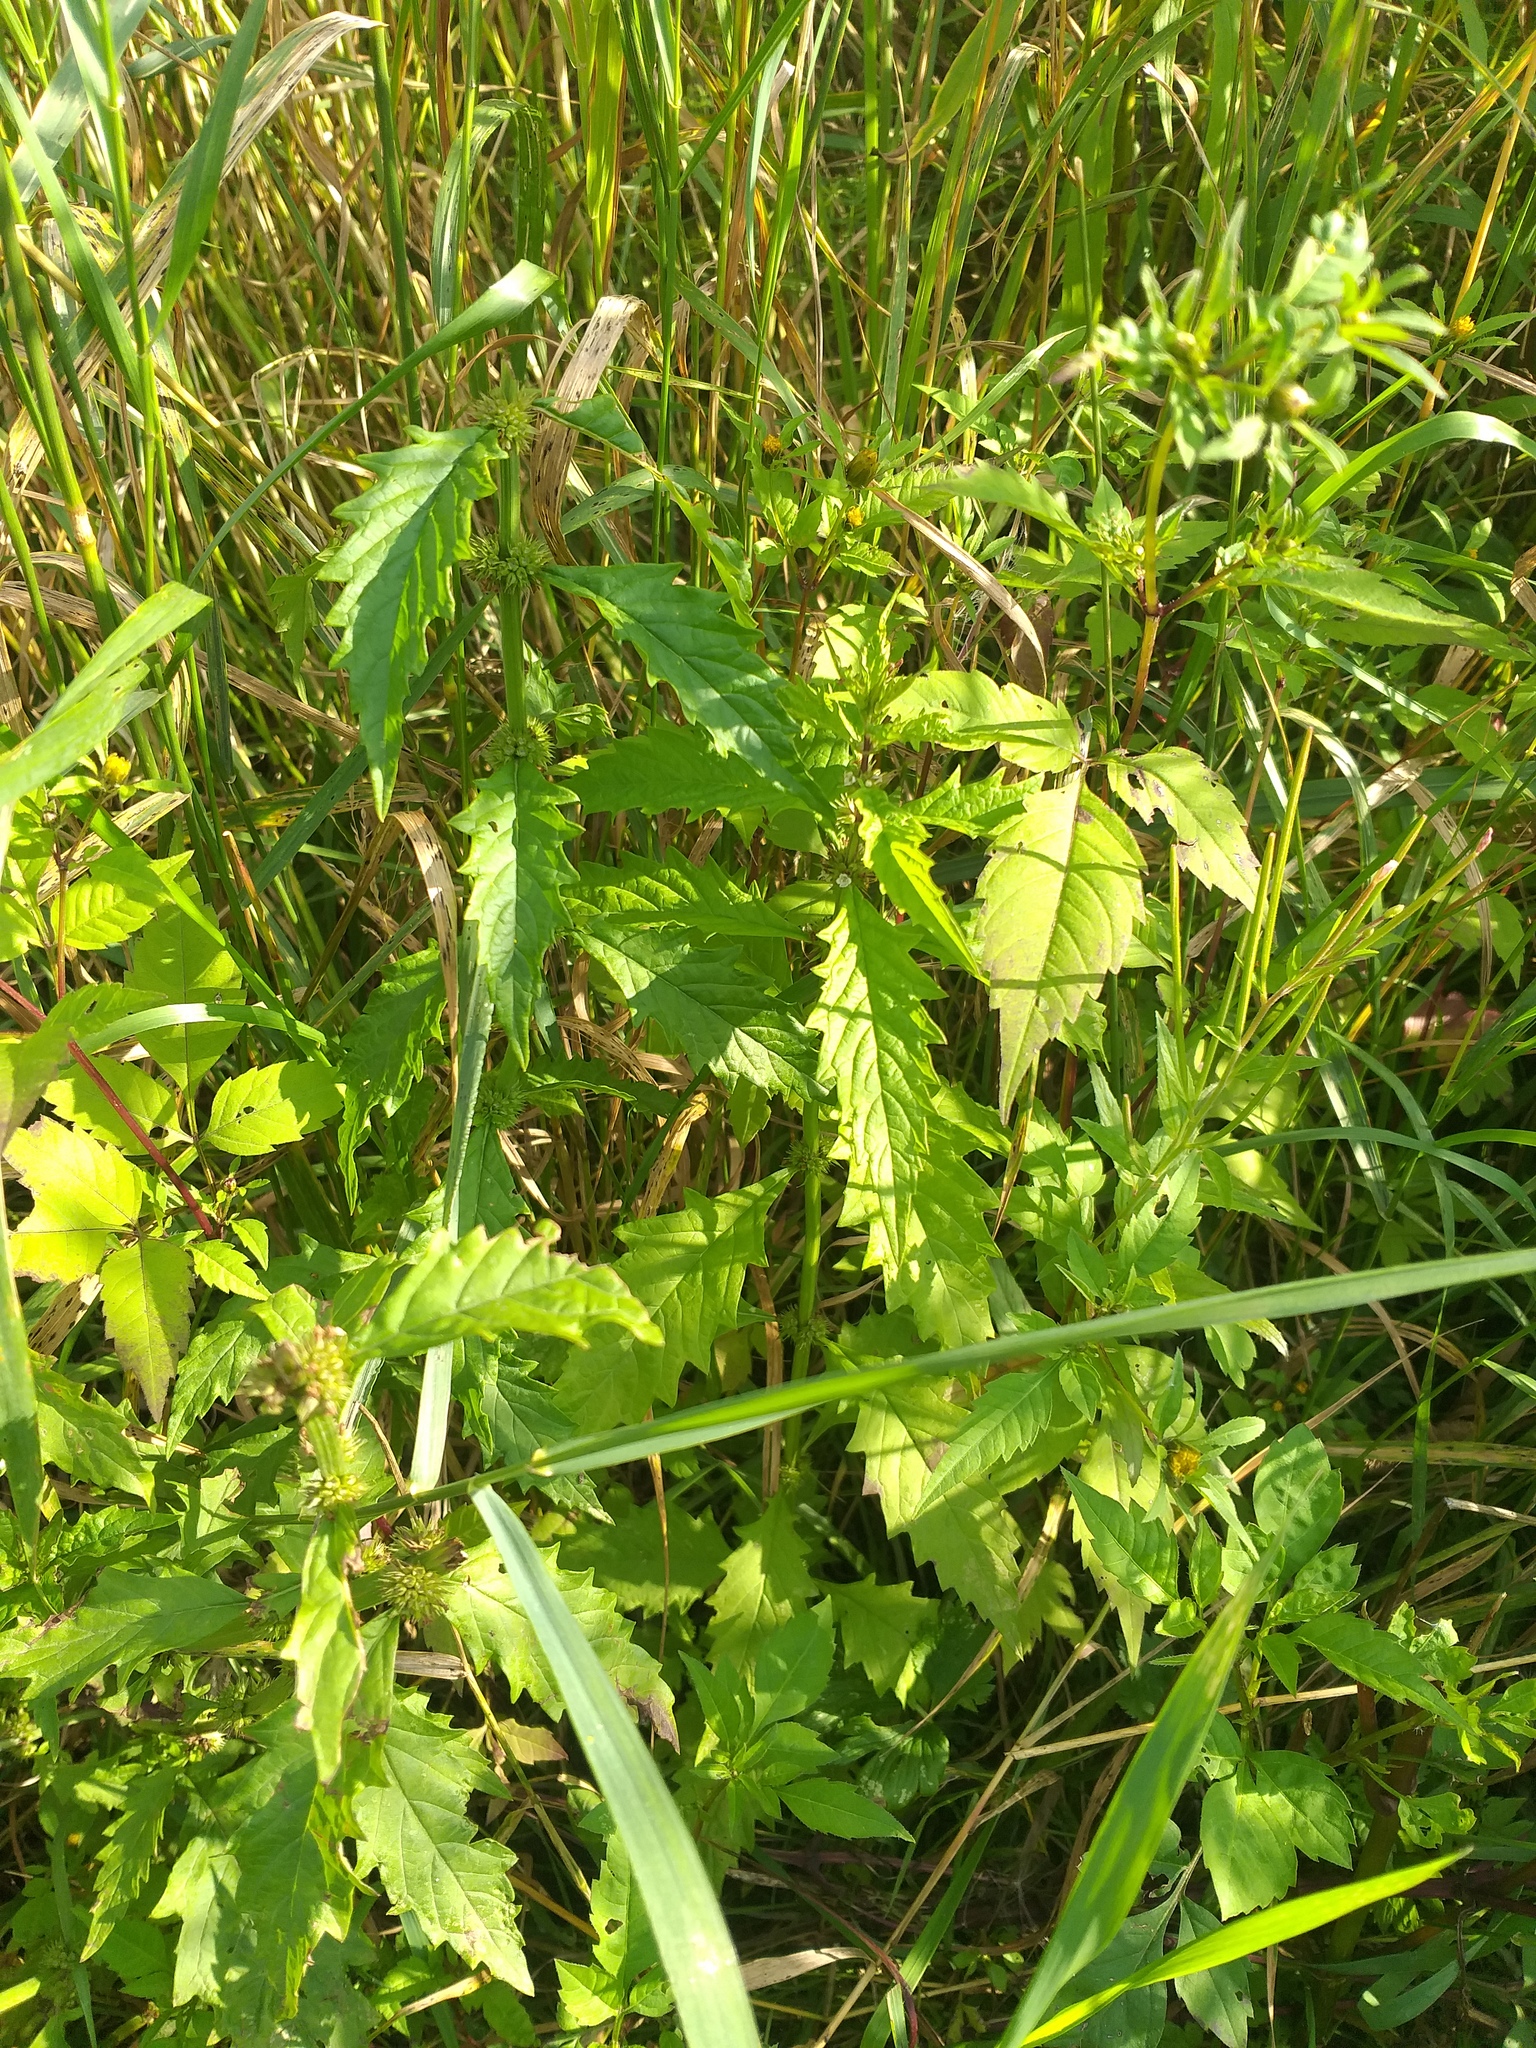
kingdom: Plantae
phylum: Tracheophyta
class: Magnoliopsida
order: Lamiales
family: Lamiaceae
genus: Lycopus
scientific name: Lycopus europaeus
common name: European bugleweed
